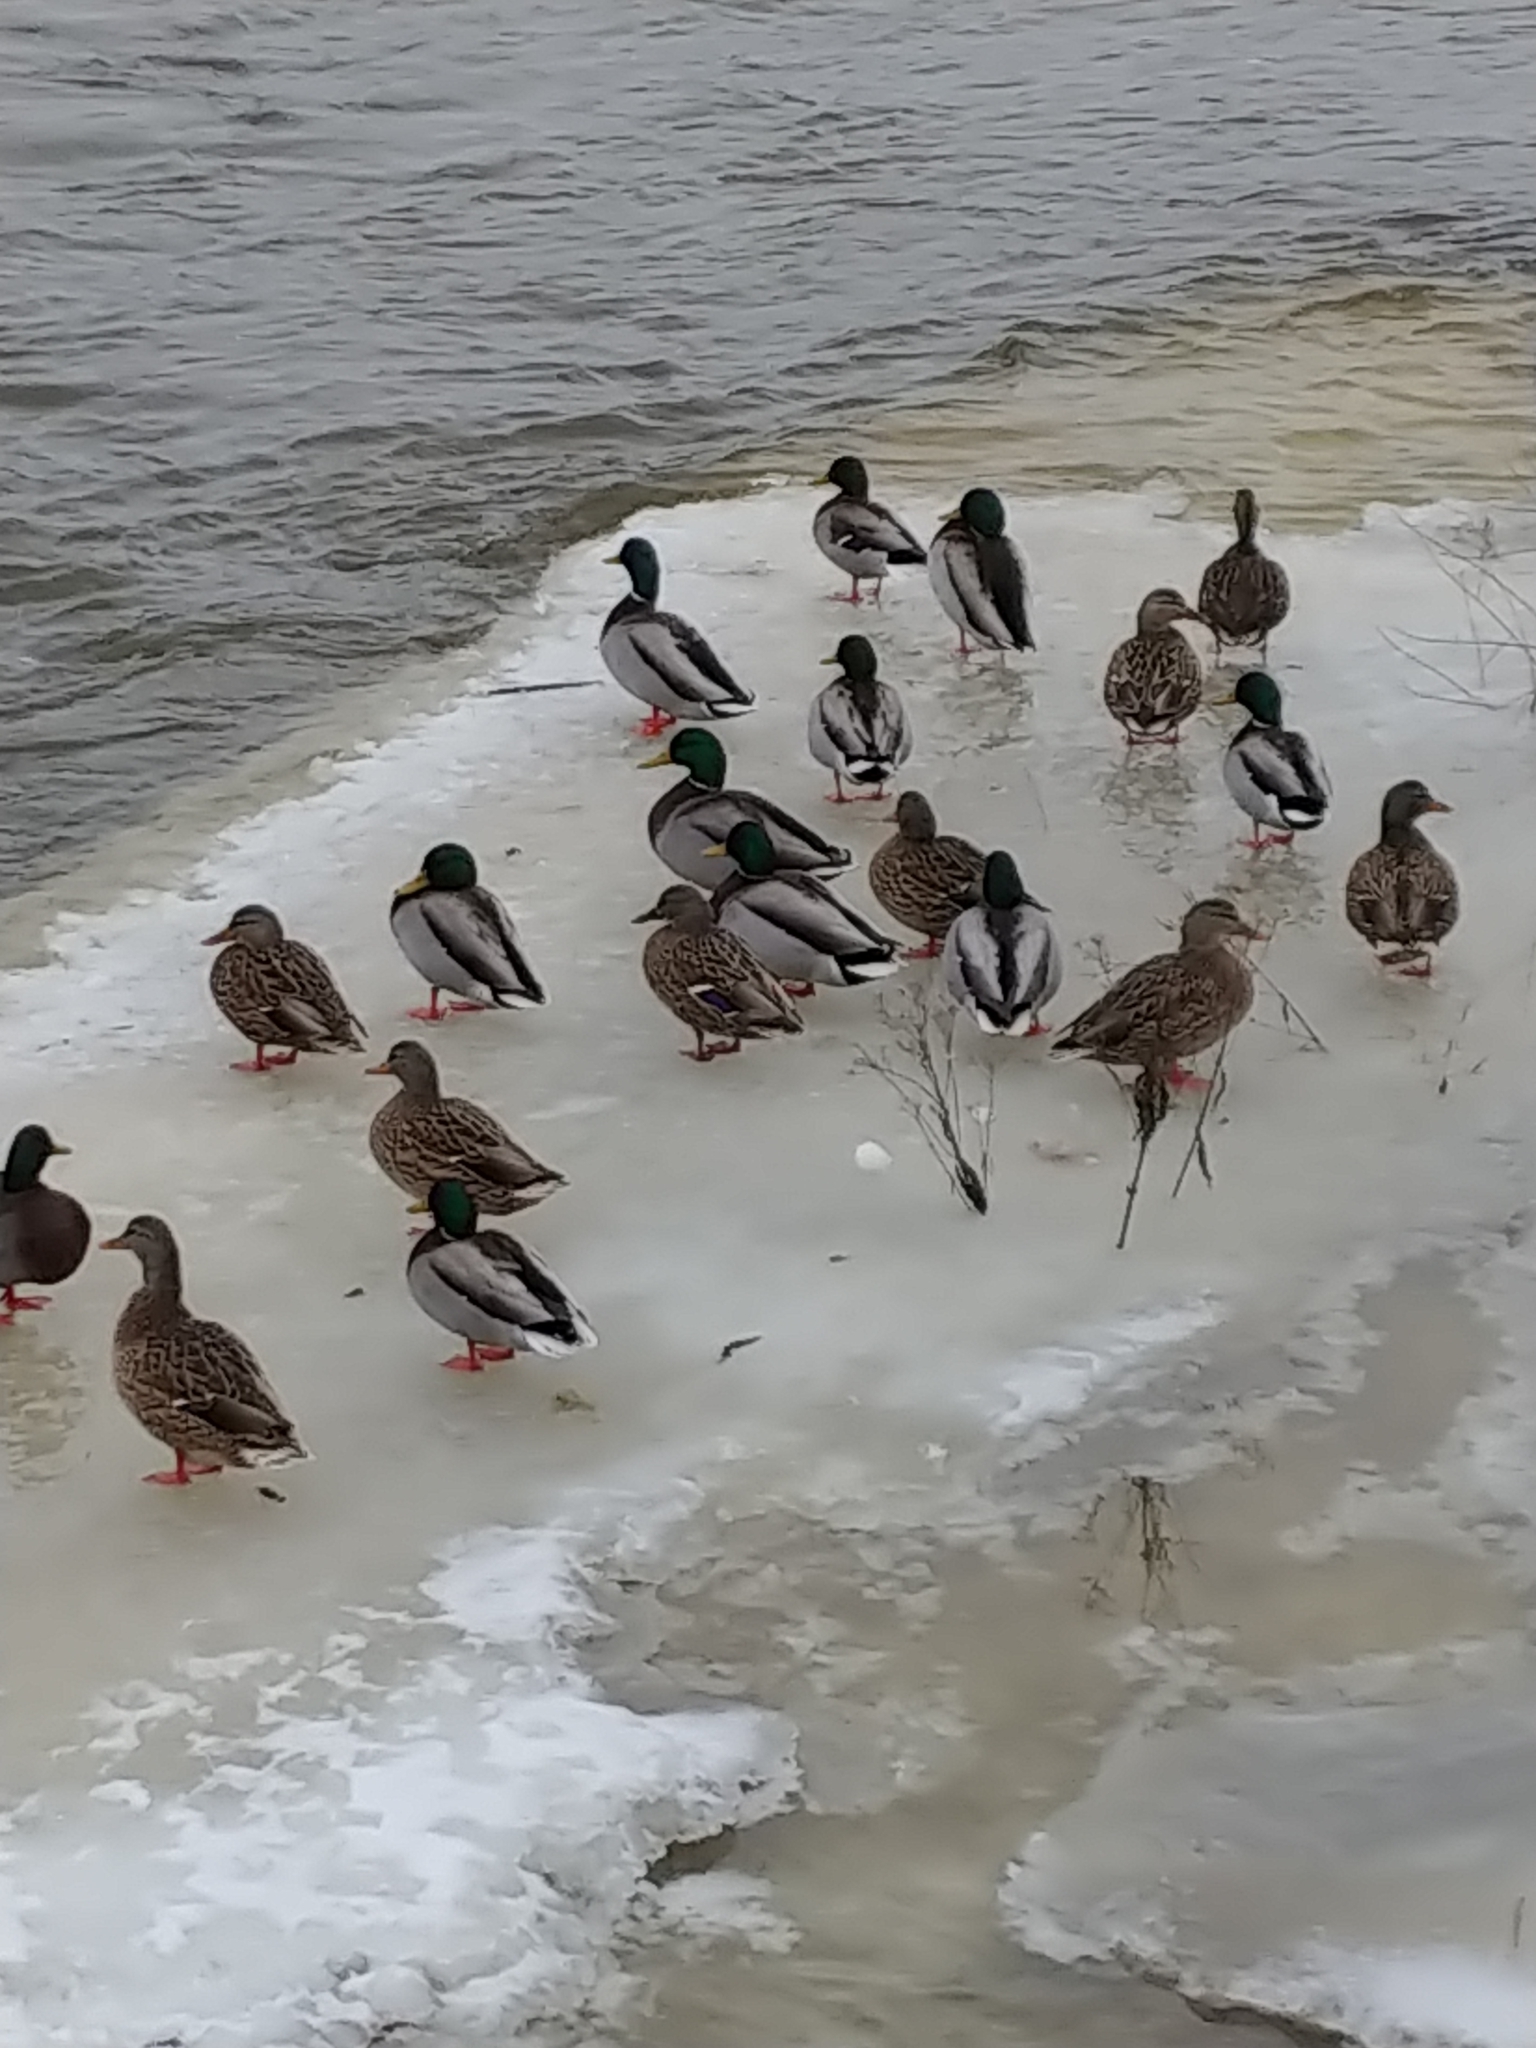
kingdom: Animalia
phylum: Chordata
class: Aves
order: Anseriformes
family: Anatidae
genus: Anas
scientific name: Anas platyrhynchos
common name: Mallard
